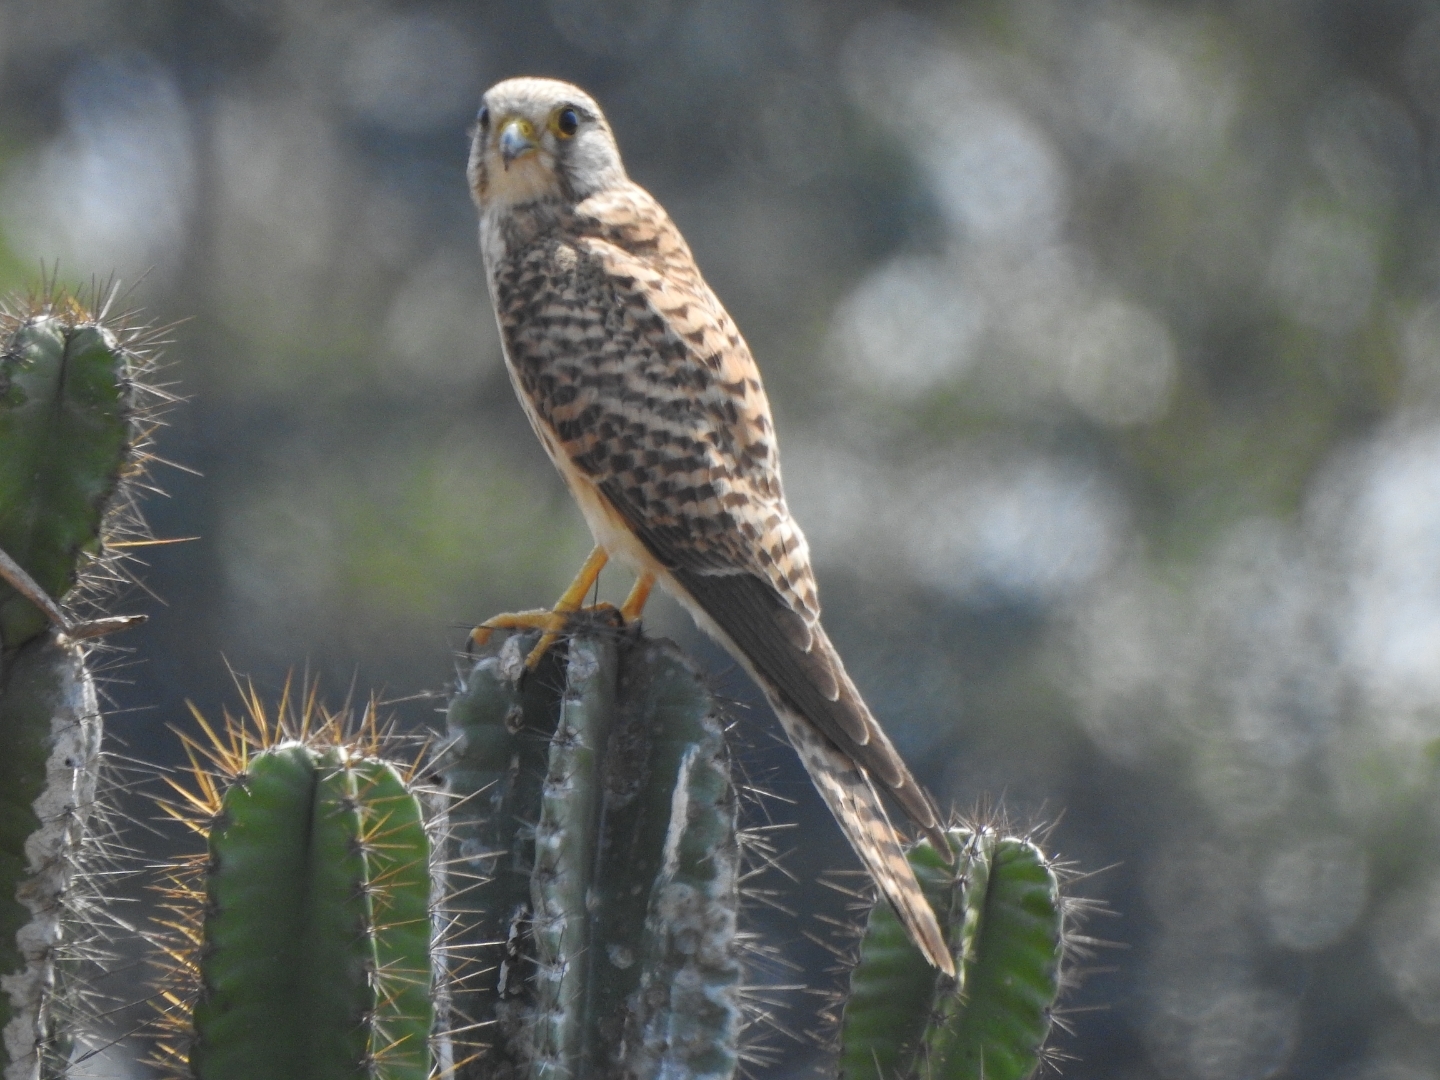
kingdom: Animalia
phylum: Chordata
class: Aves
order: Falconiformes
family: Falconidae
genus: Falco
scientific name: Falco tinnunculus
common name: Common kestrel
